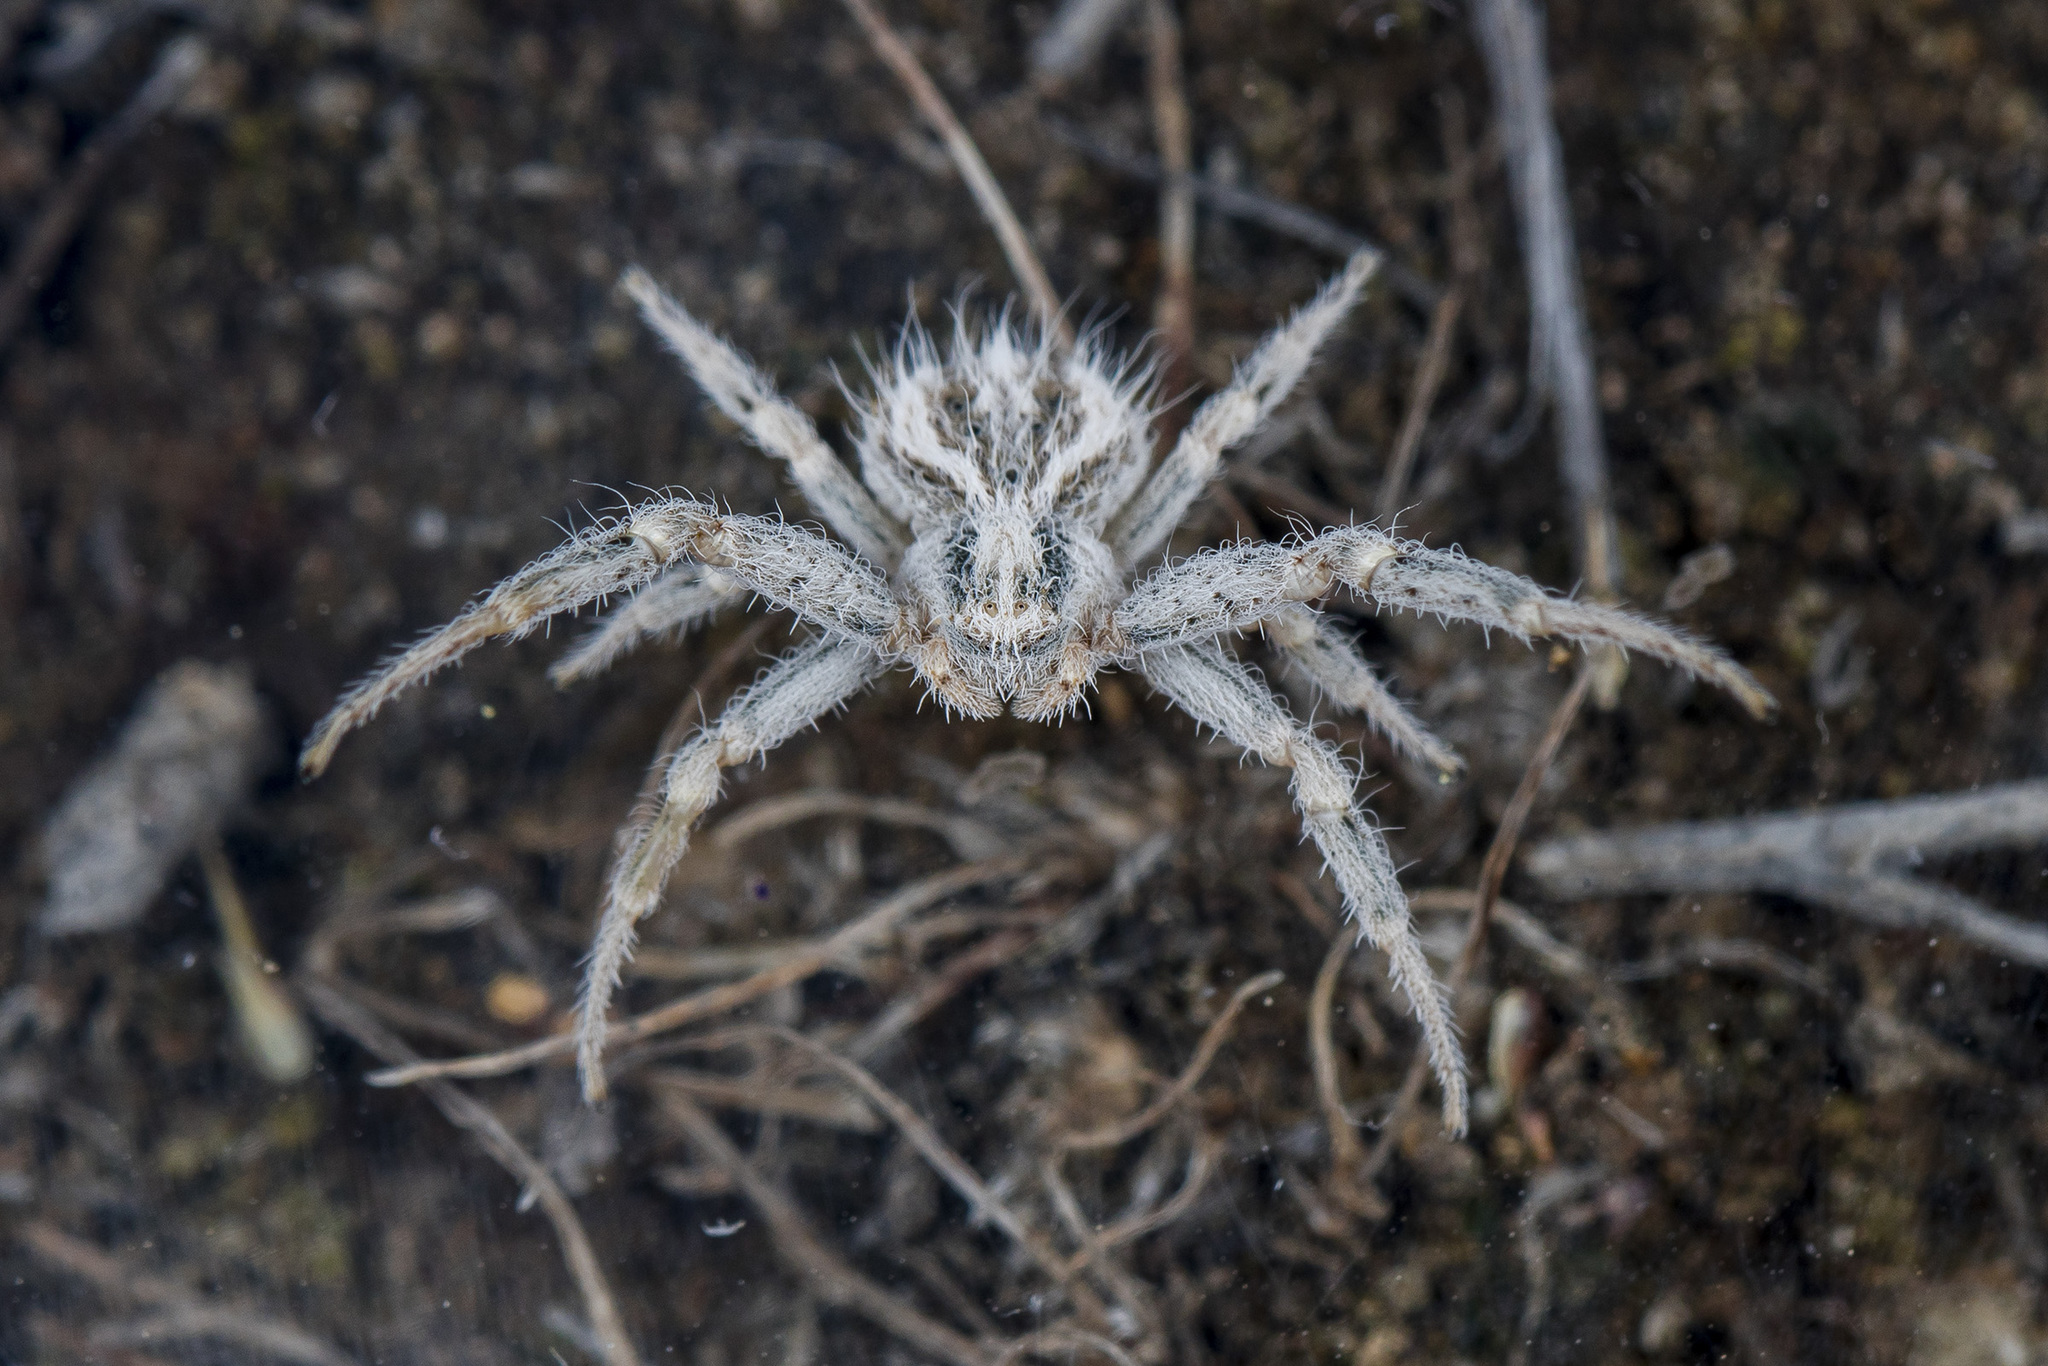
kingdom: Animalia
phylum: Arthropoda
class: Arachnida
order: Araneae
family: Thomisidae
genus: Heriaeus
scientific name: Heriaeus horridus
